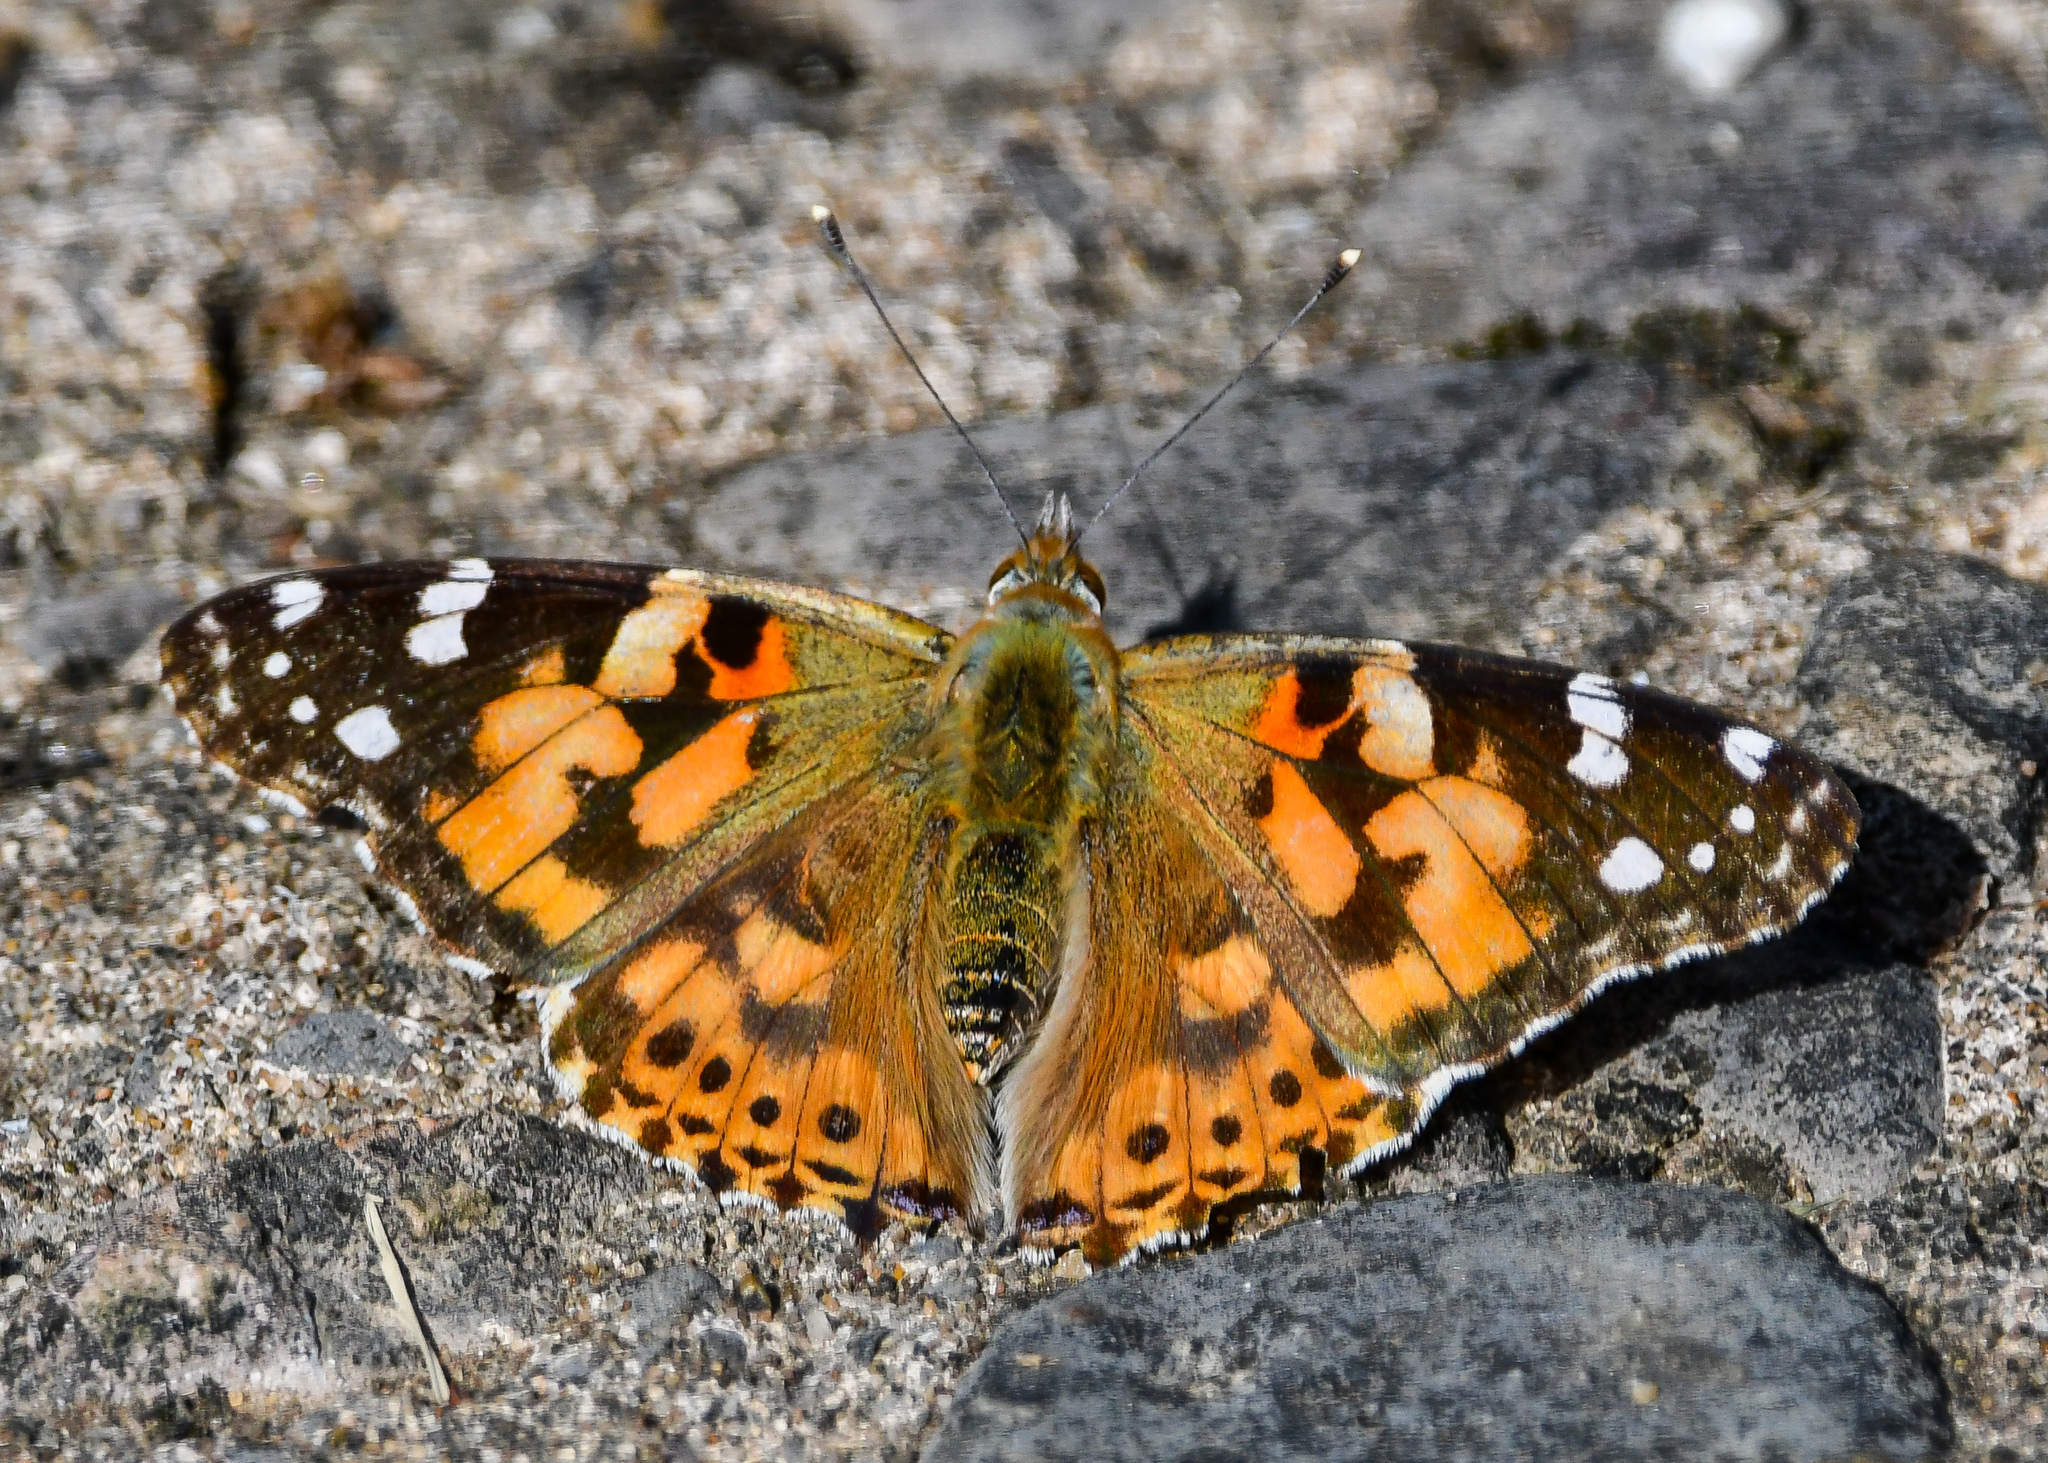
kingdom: Animalia
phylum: Arthropoda
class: Insecta
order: Lepidoptera
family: Nymphalidae
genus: Vanessa
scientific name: Vanessa cardui
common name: Painted lady
